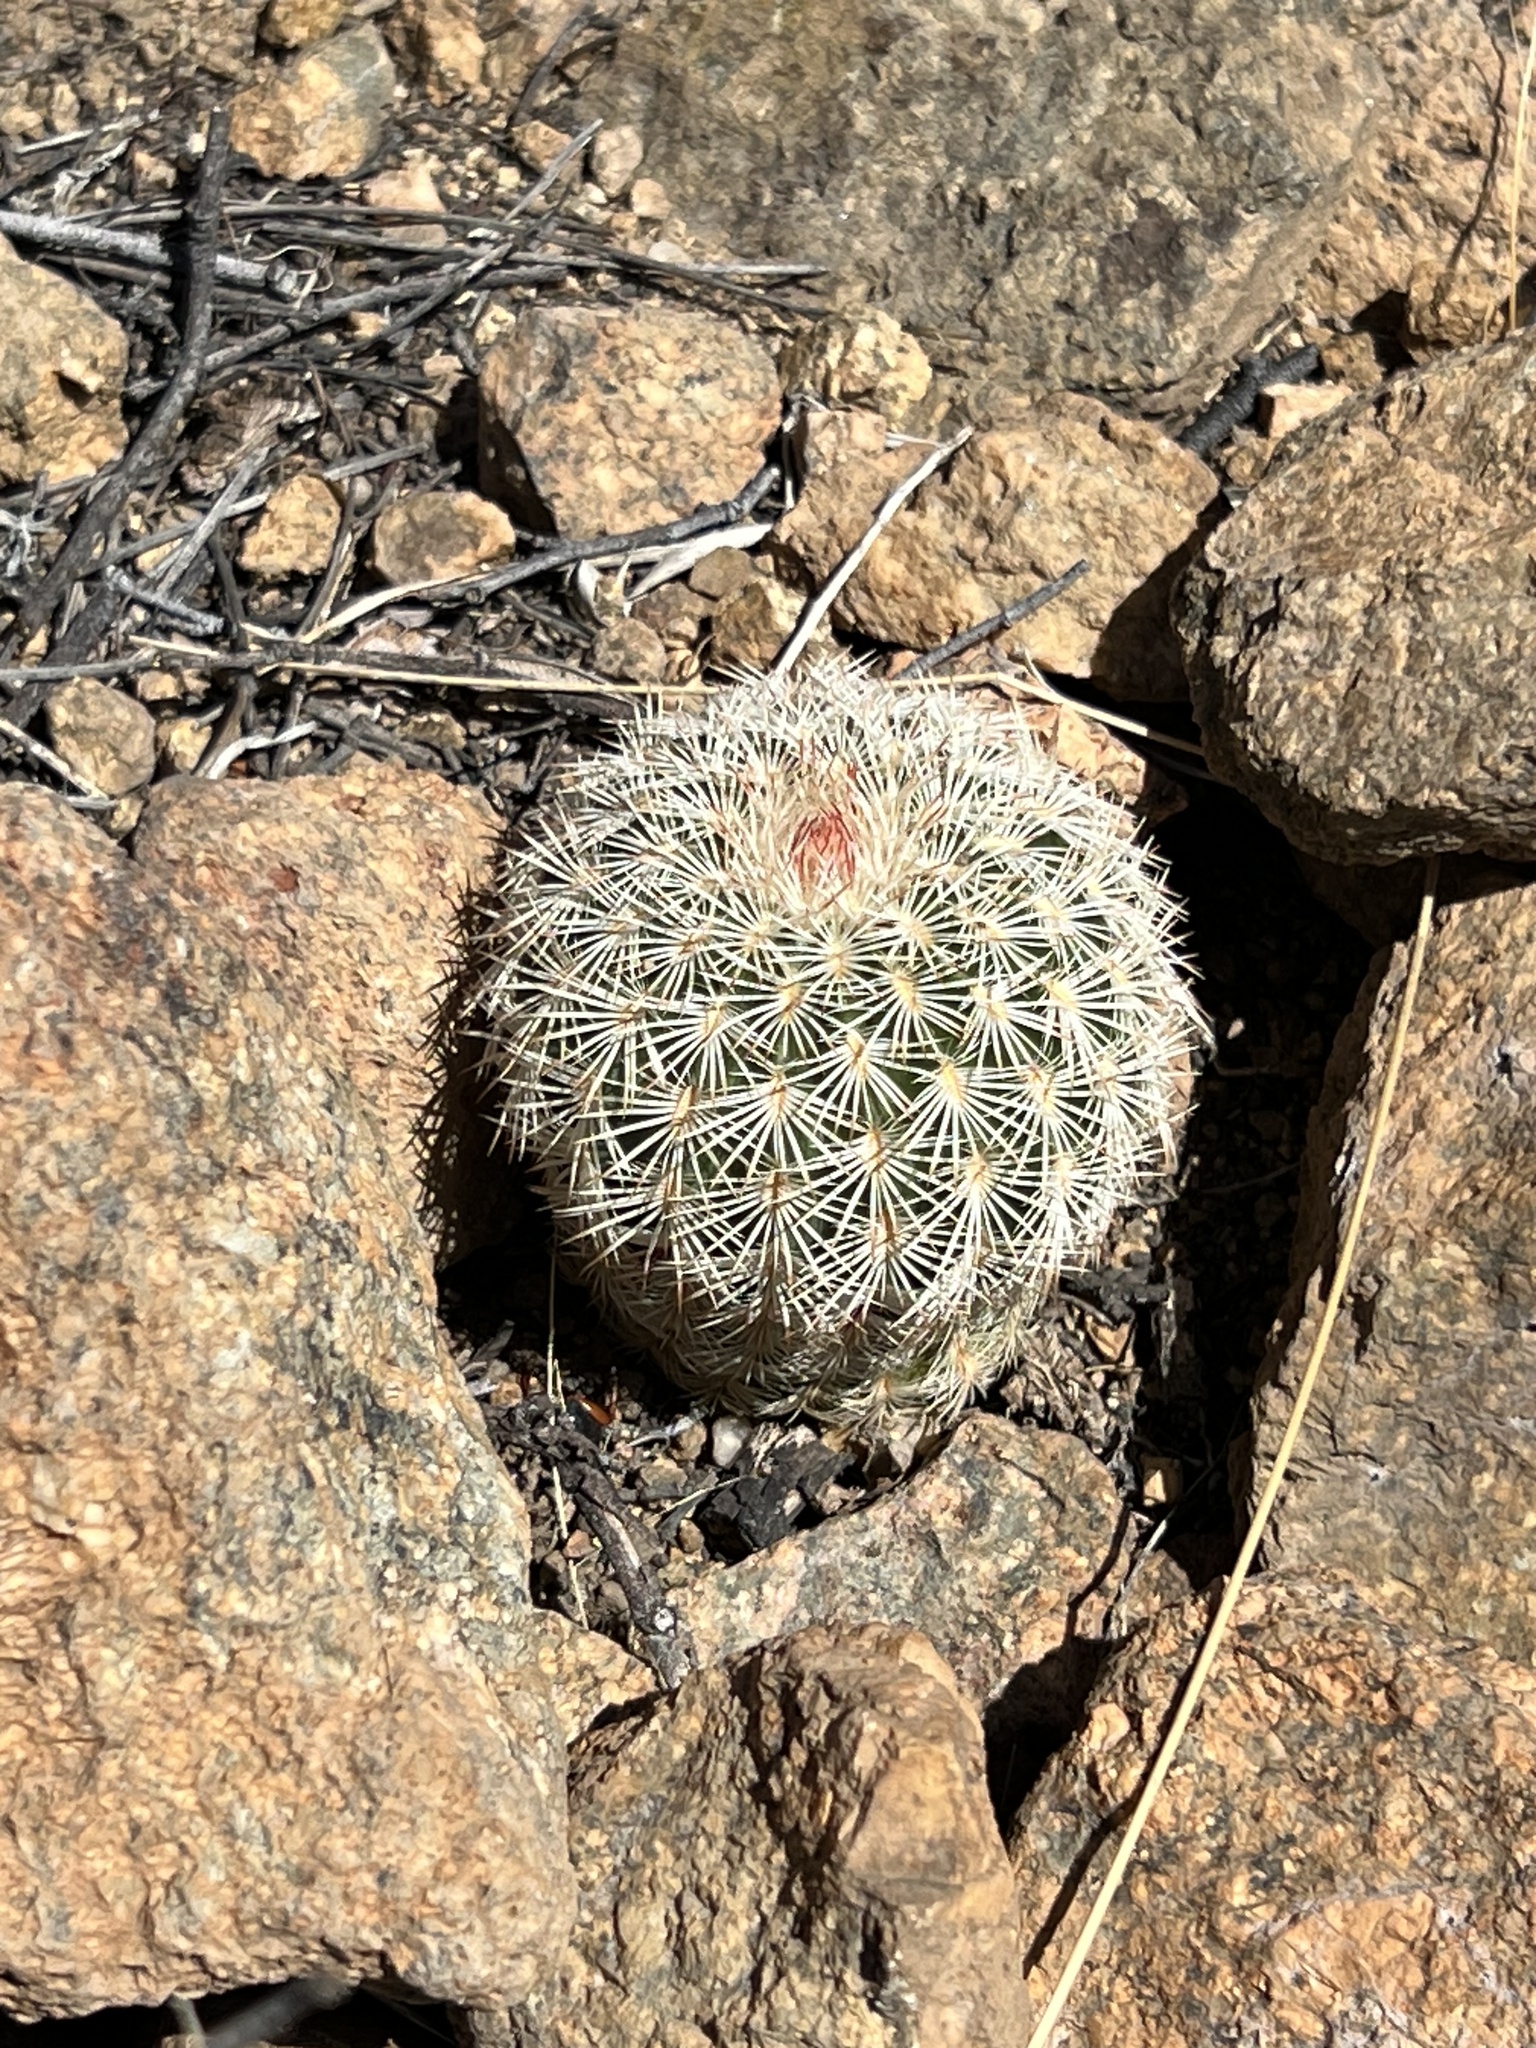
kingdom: Plantae
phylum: Tracheophyta
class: Magnoliopsida
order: Caryophyllales
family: Cactaceae
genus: Echinocereus
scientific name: Echinocereus rigidissimus
